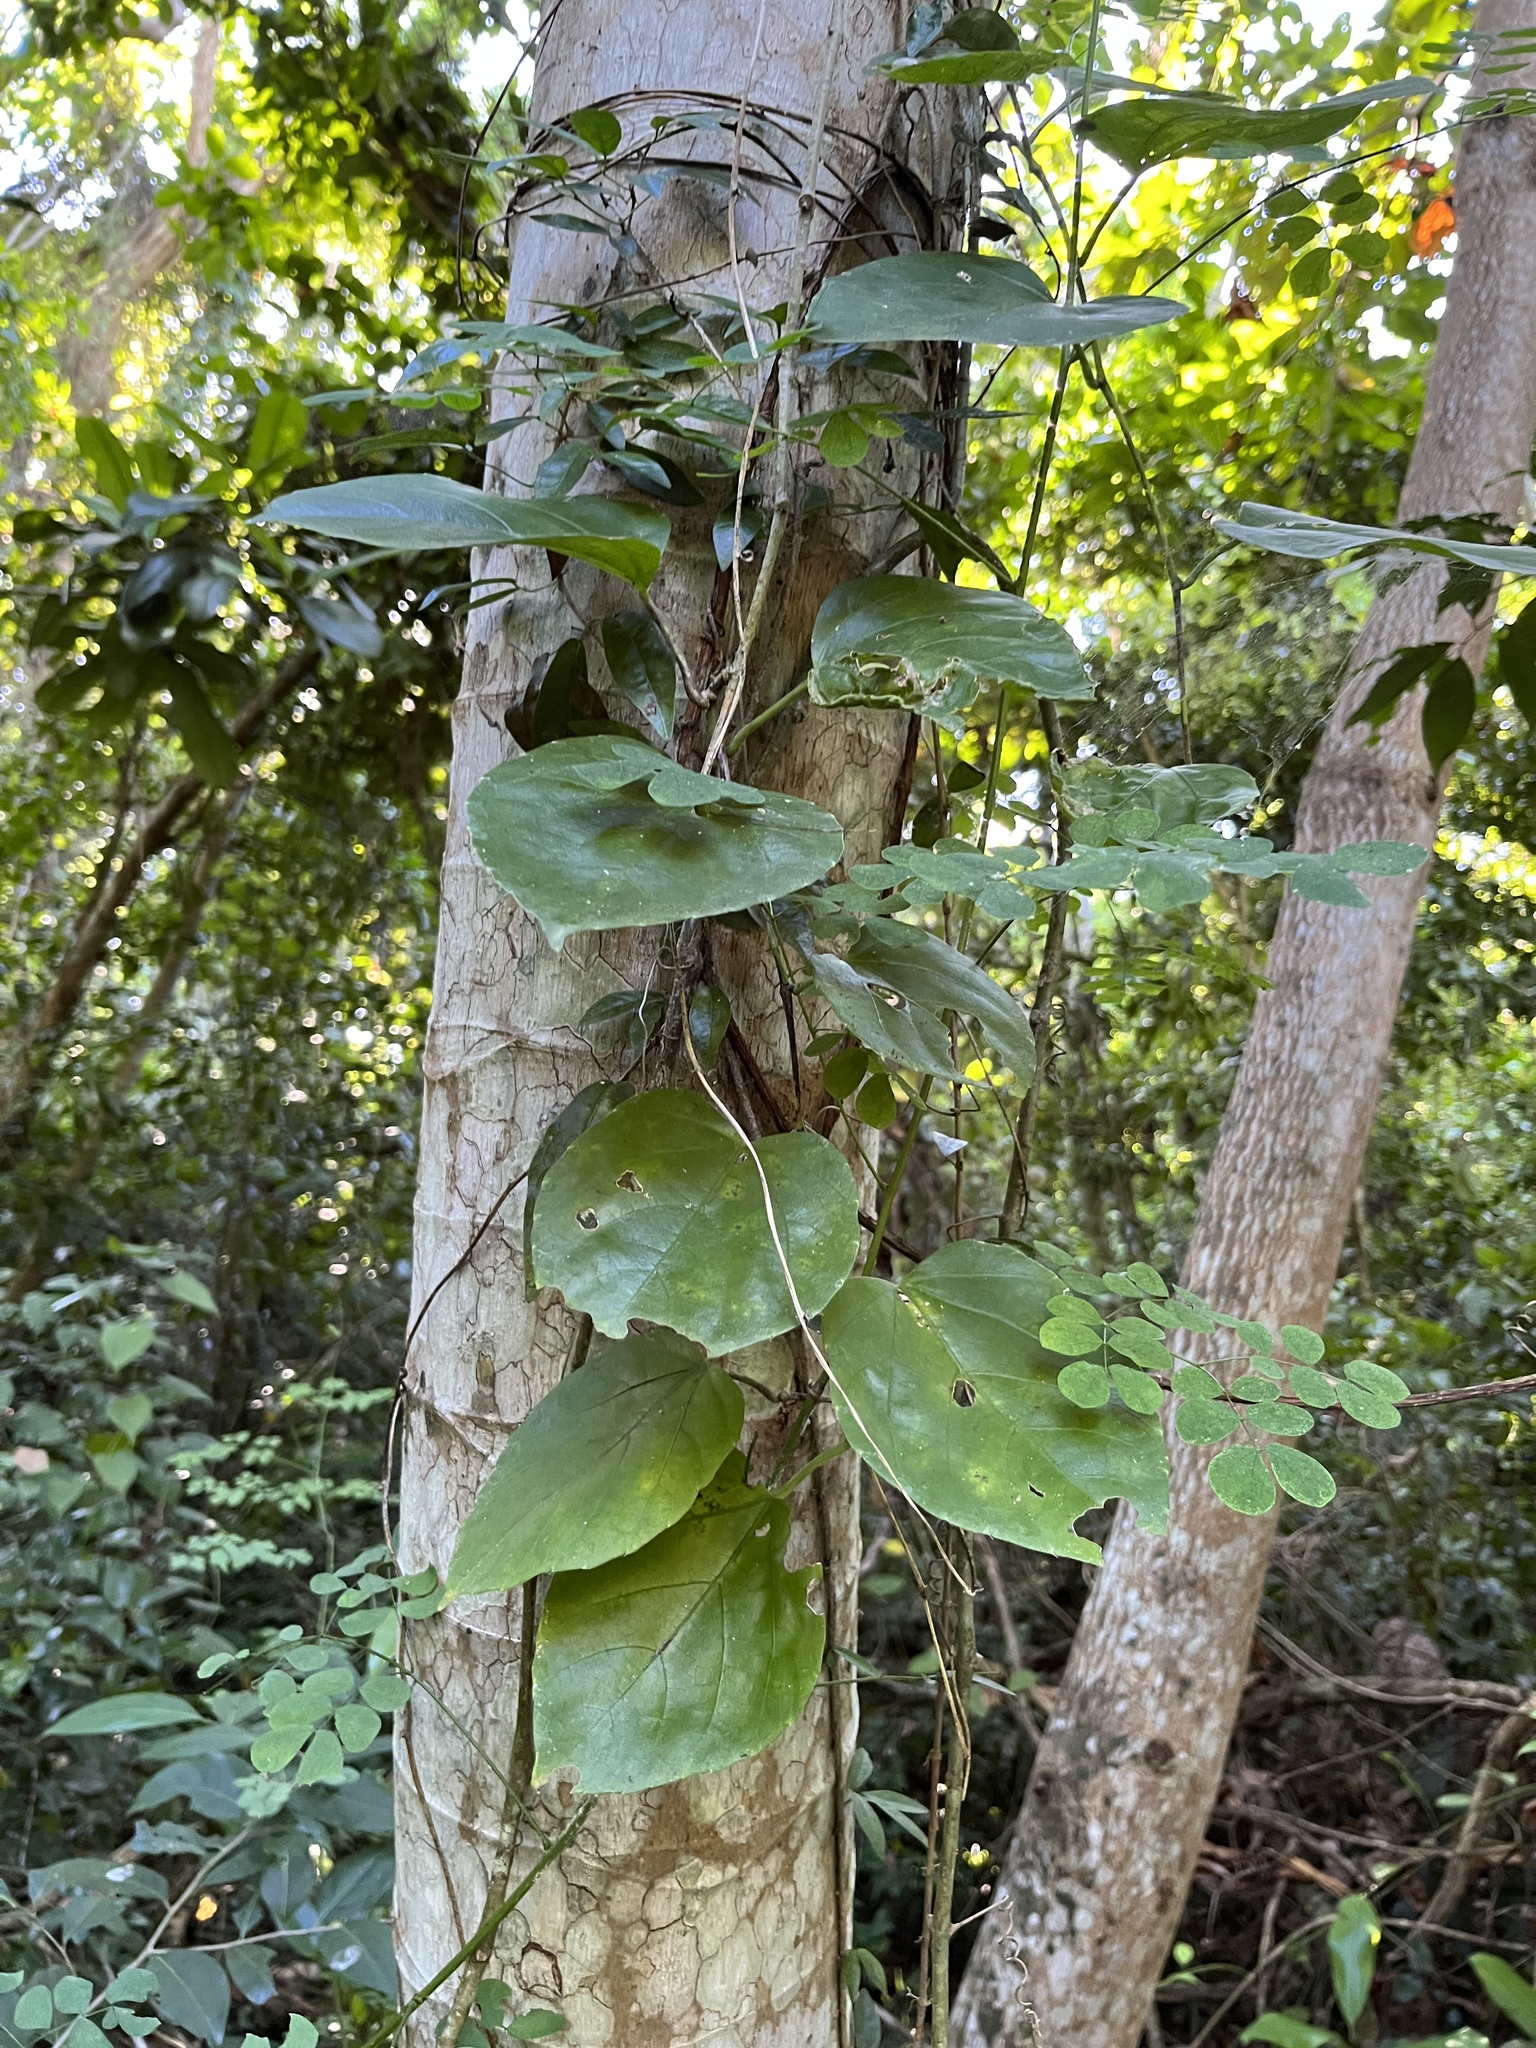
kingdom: Plantae
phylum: Tracheophyta
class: Magnoliopsida
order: Vitales
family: Vitaceae
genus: Cissus
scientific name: Cissus verticillata
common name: Princess vine
